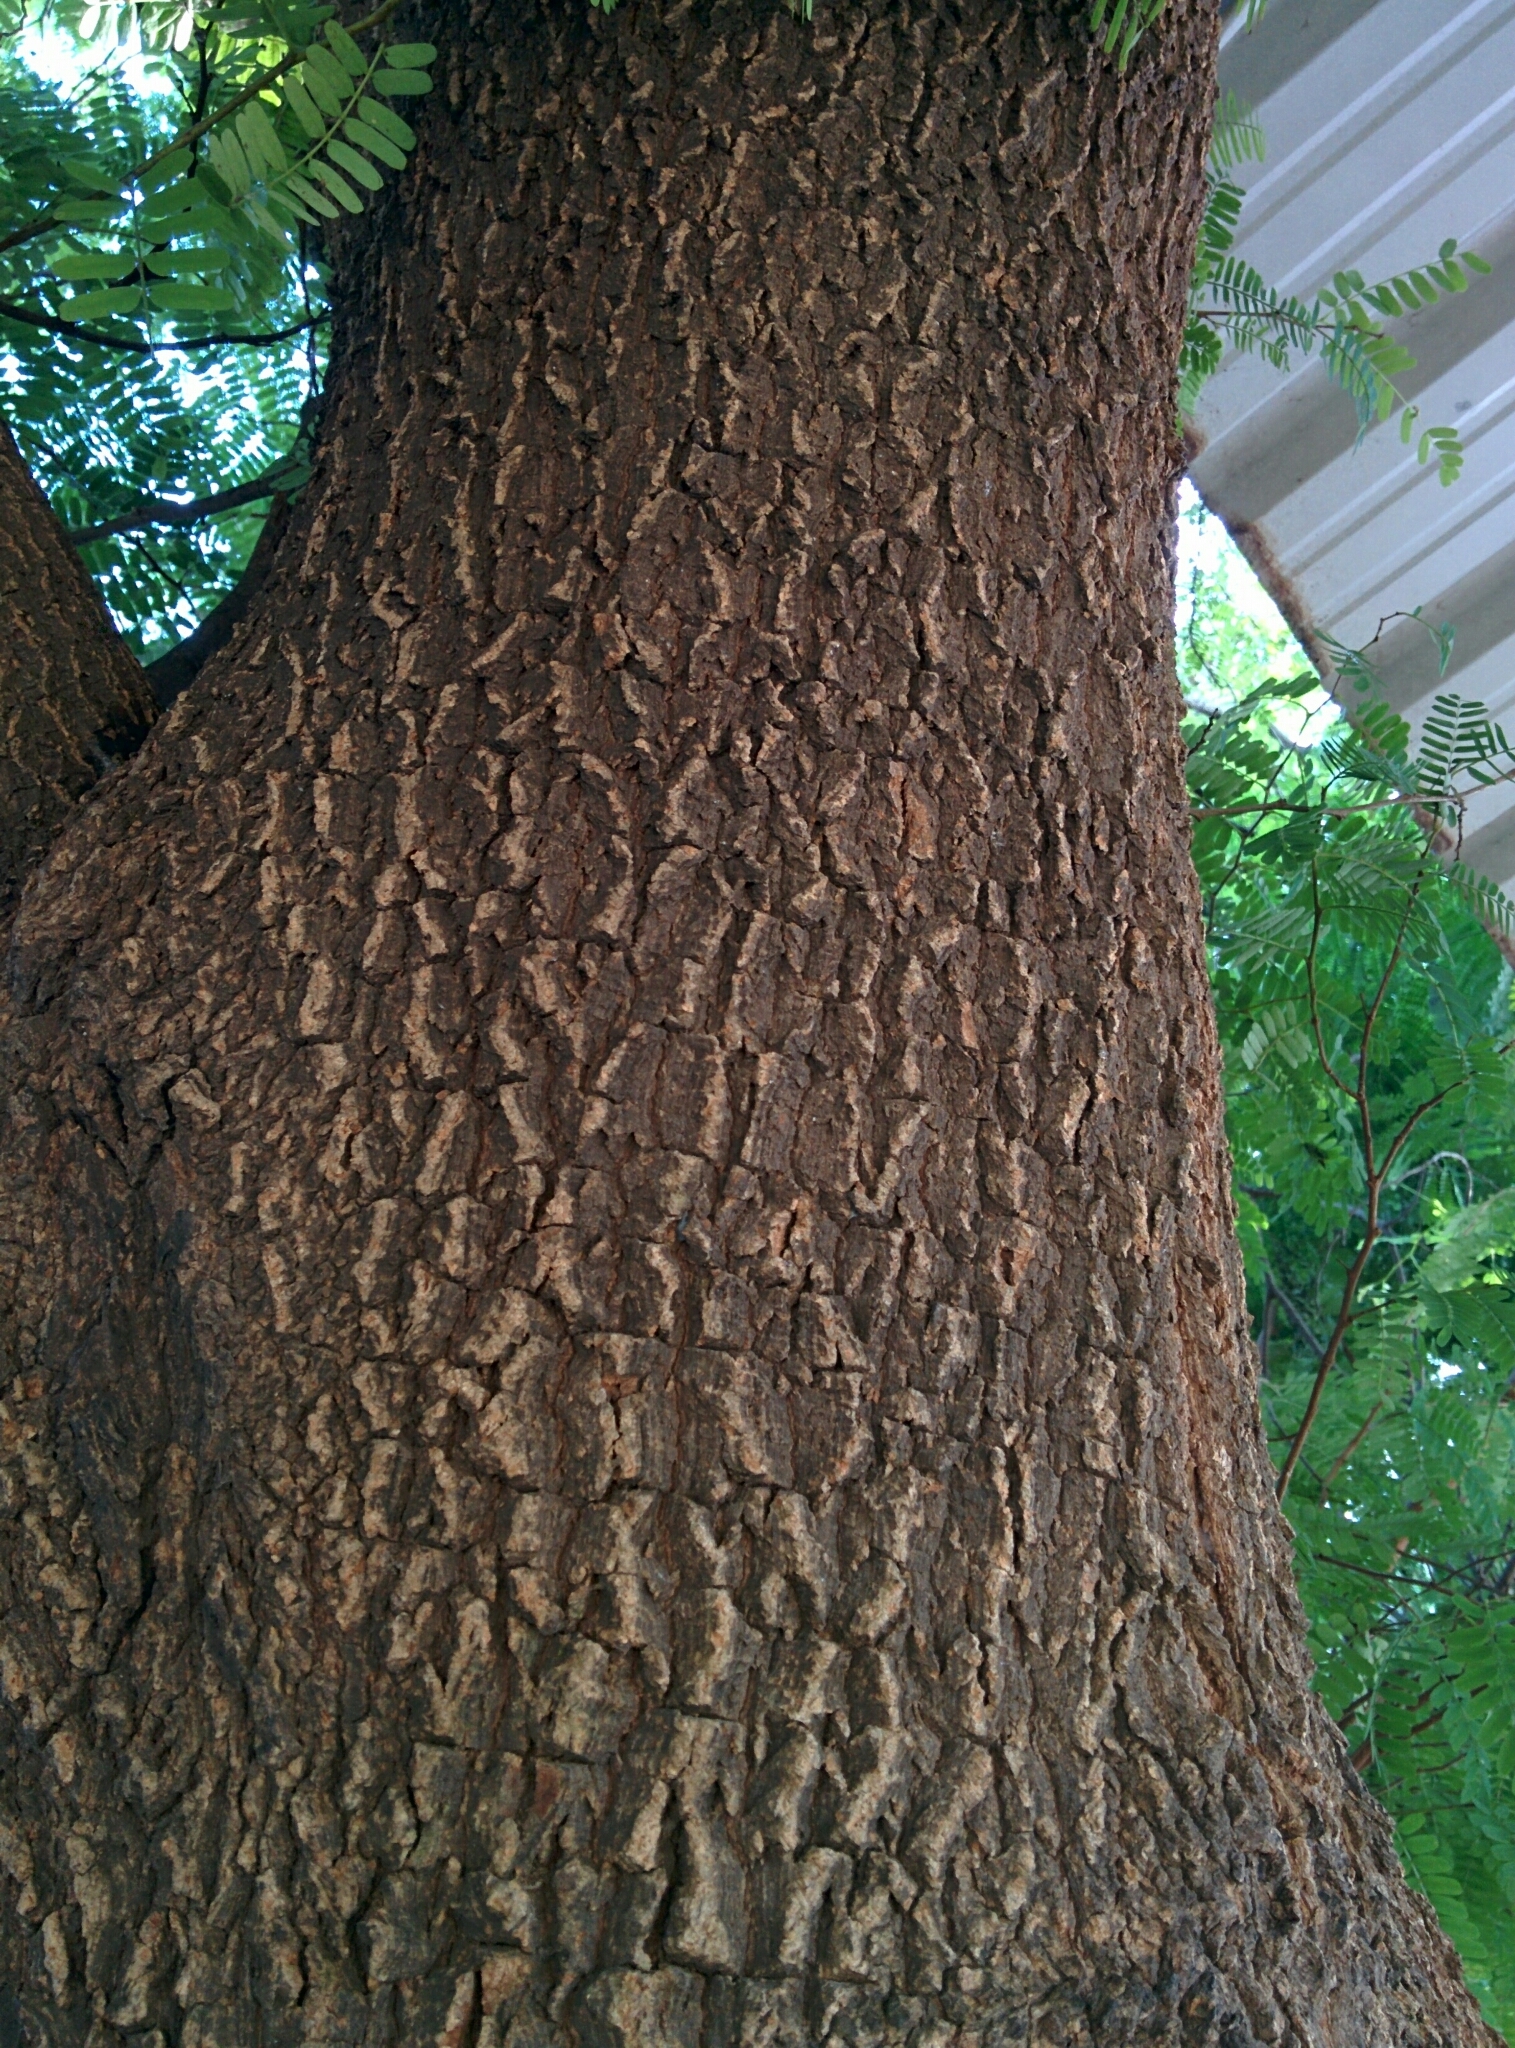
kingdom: Plantae
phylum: Tracheophyta
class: Magnoliopsida
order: Fabales
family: Fabaceae
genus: Tamarindus
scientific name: Tamarindus indica
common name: Tamarind
